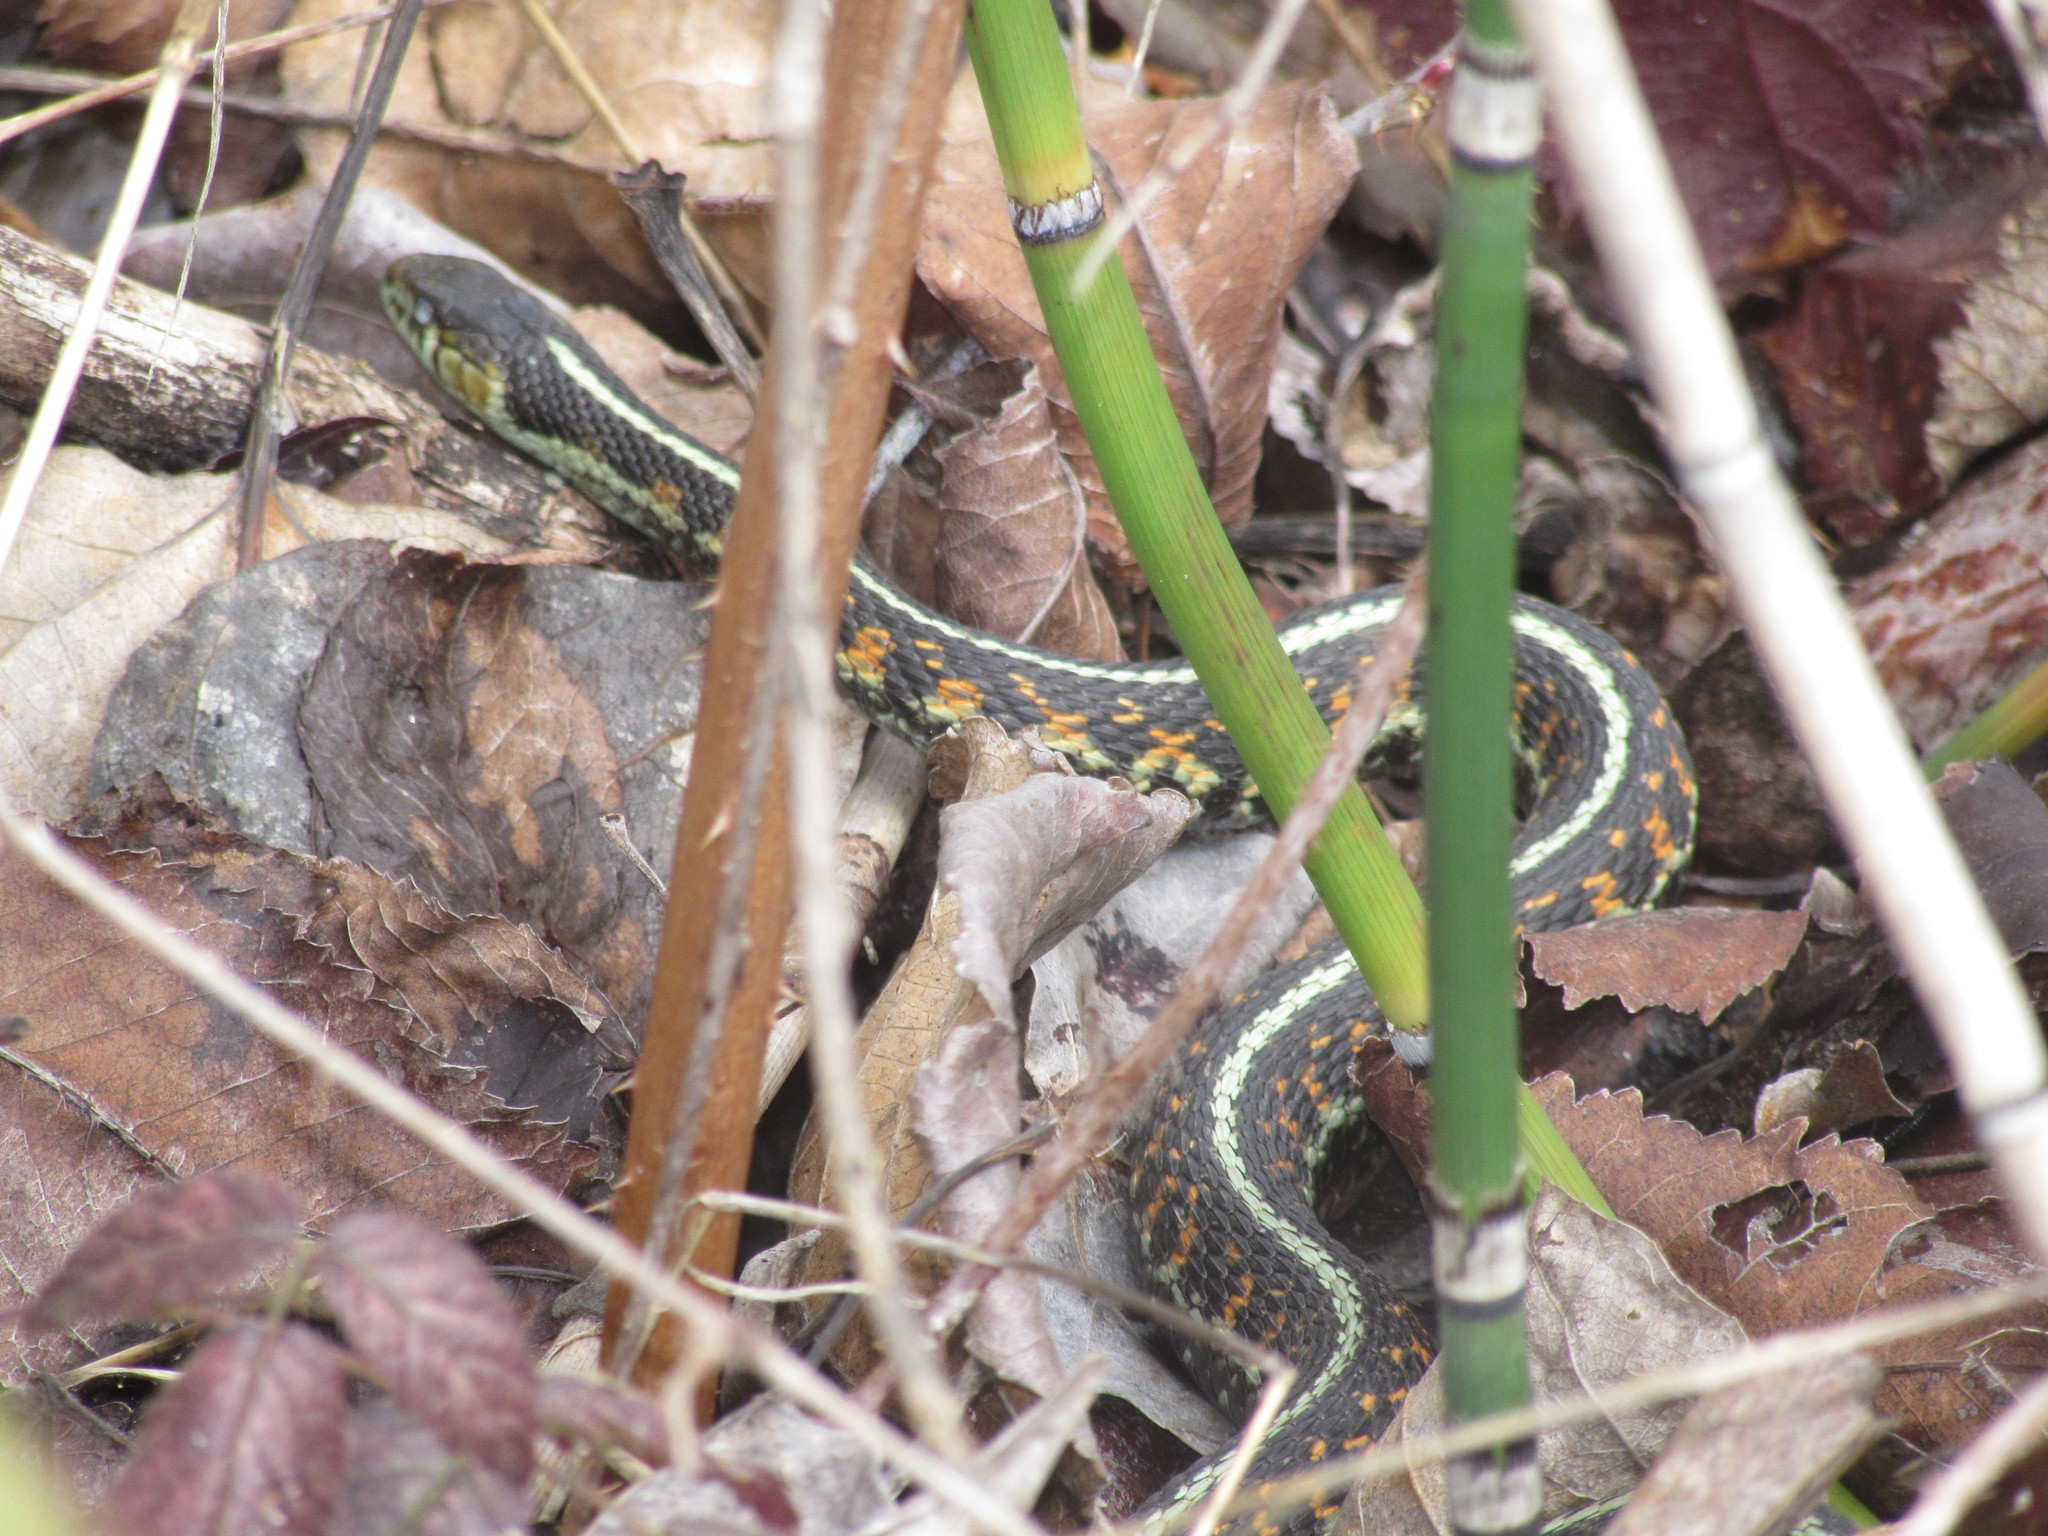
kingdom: Animalia
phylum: Chordata
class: Squamata
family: Colubridae
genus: Thamnophis
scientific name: Thamnophis sirtalis
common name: Common garter snake
